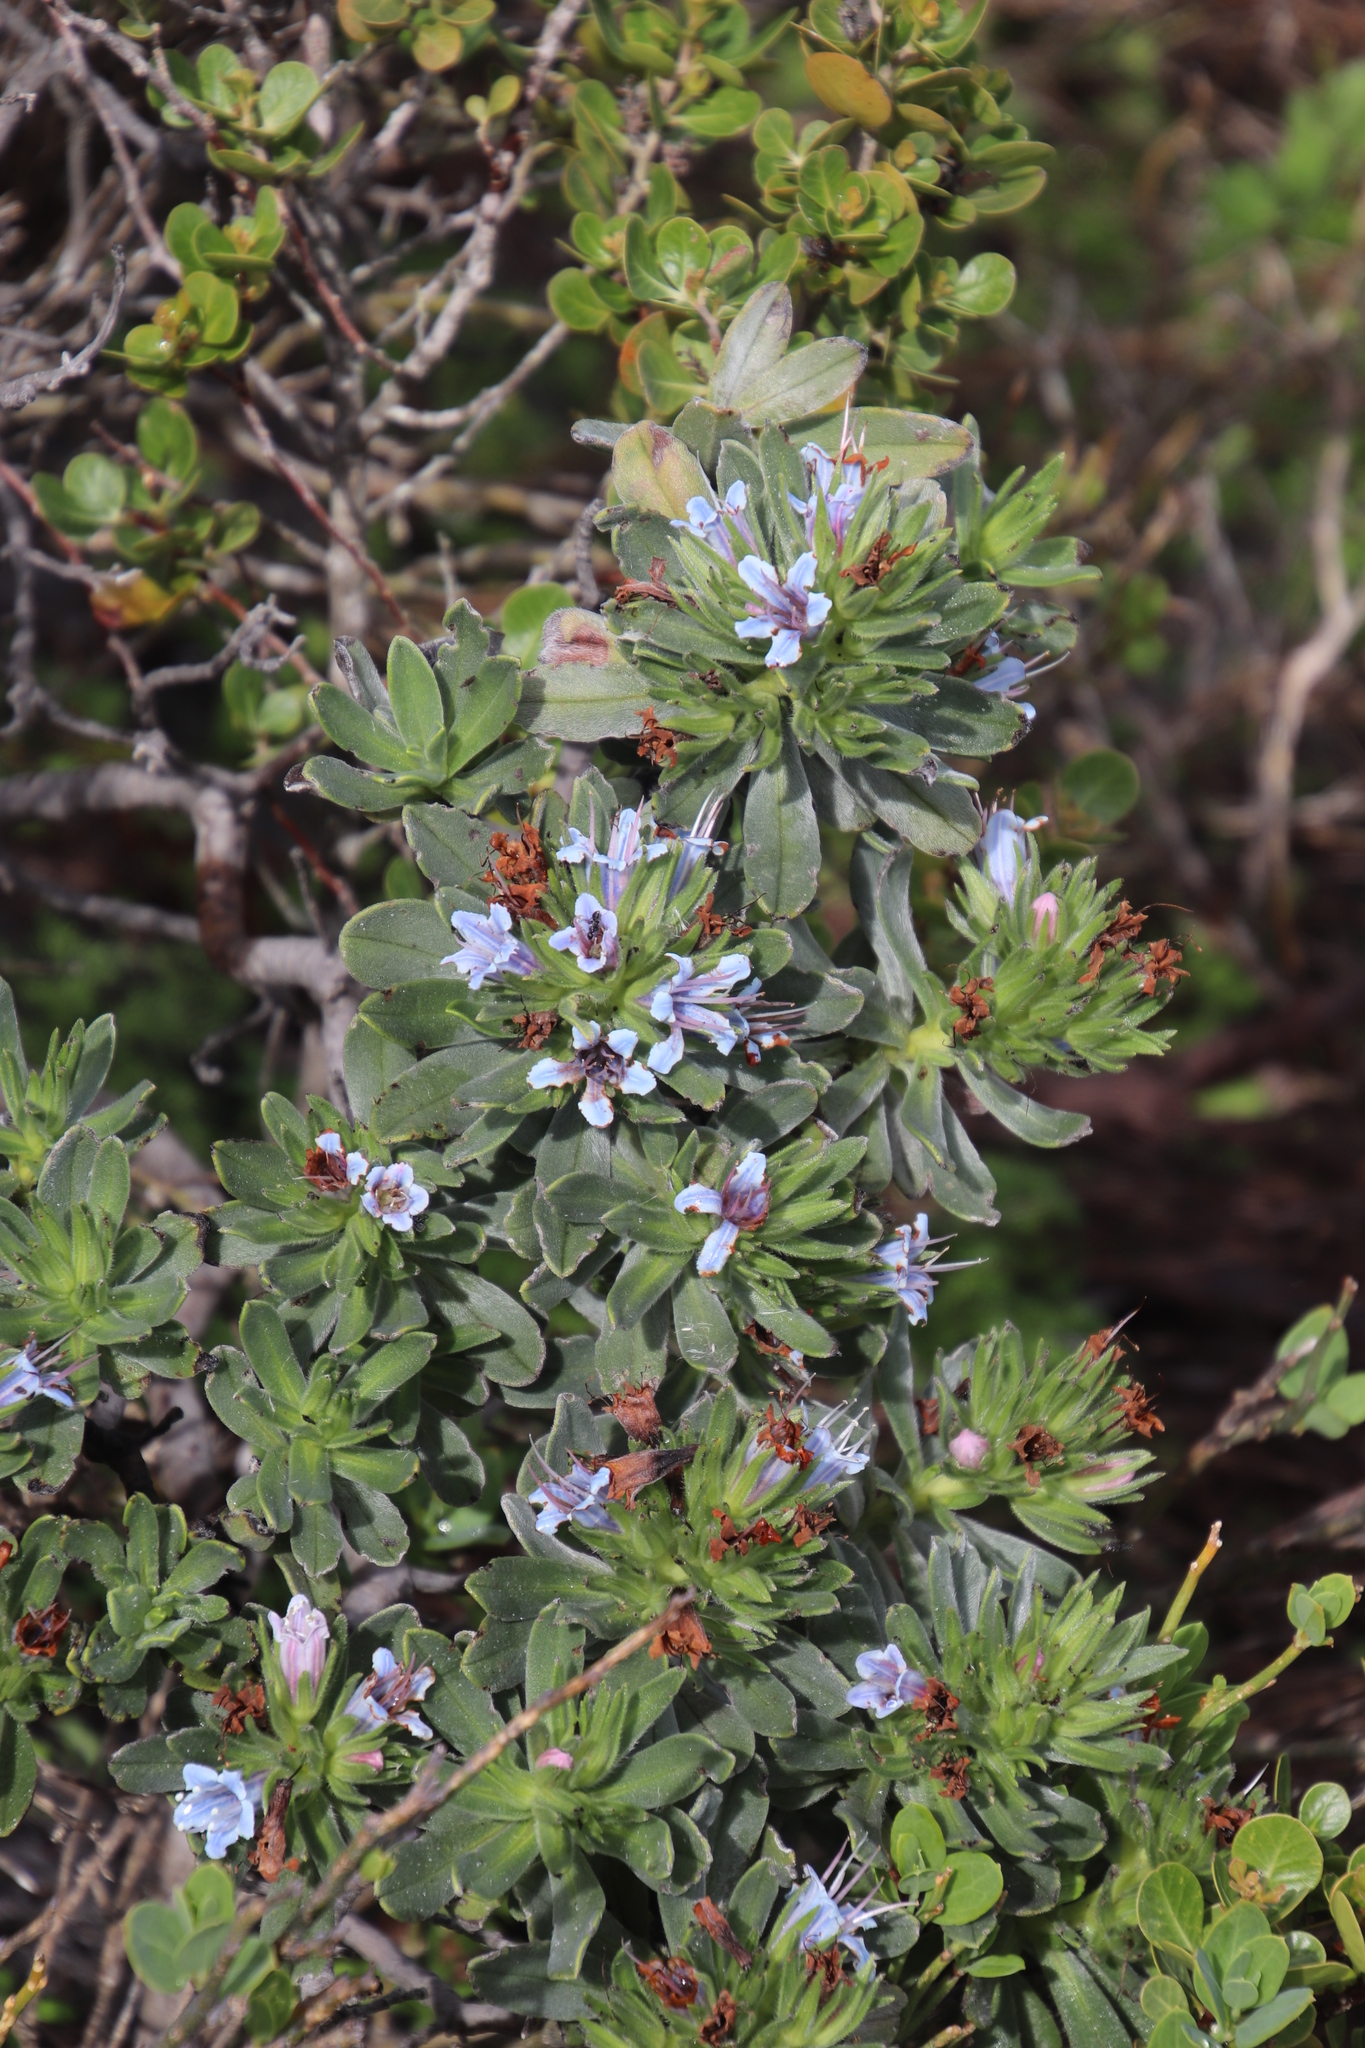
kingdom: Plantae
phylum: Tracheophyta
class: Magnoliopsida
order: Boraginales
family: Boraginaceae
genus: Lobostemon
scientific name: Lobostemon montanus
